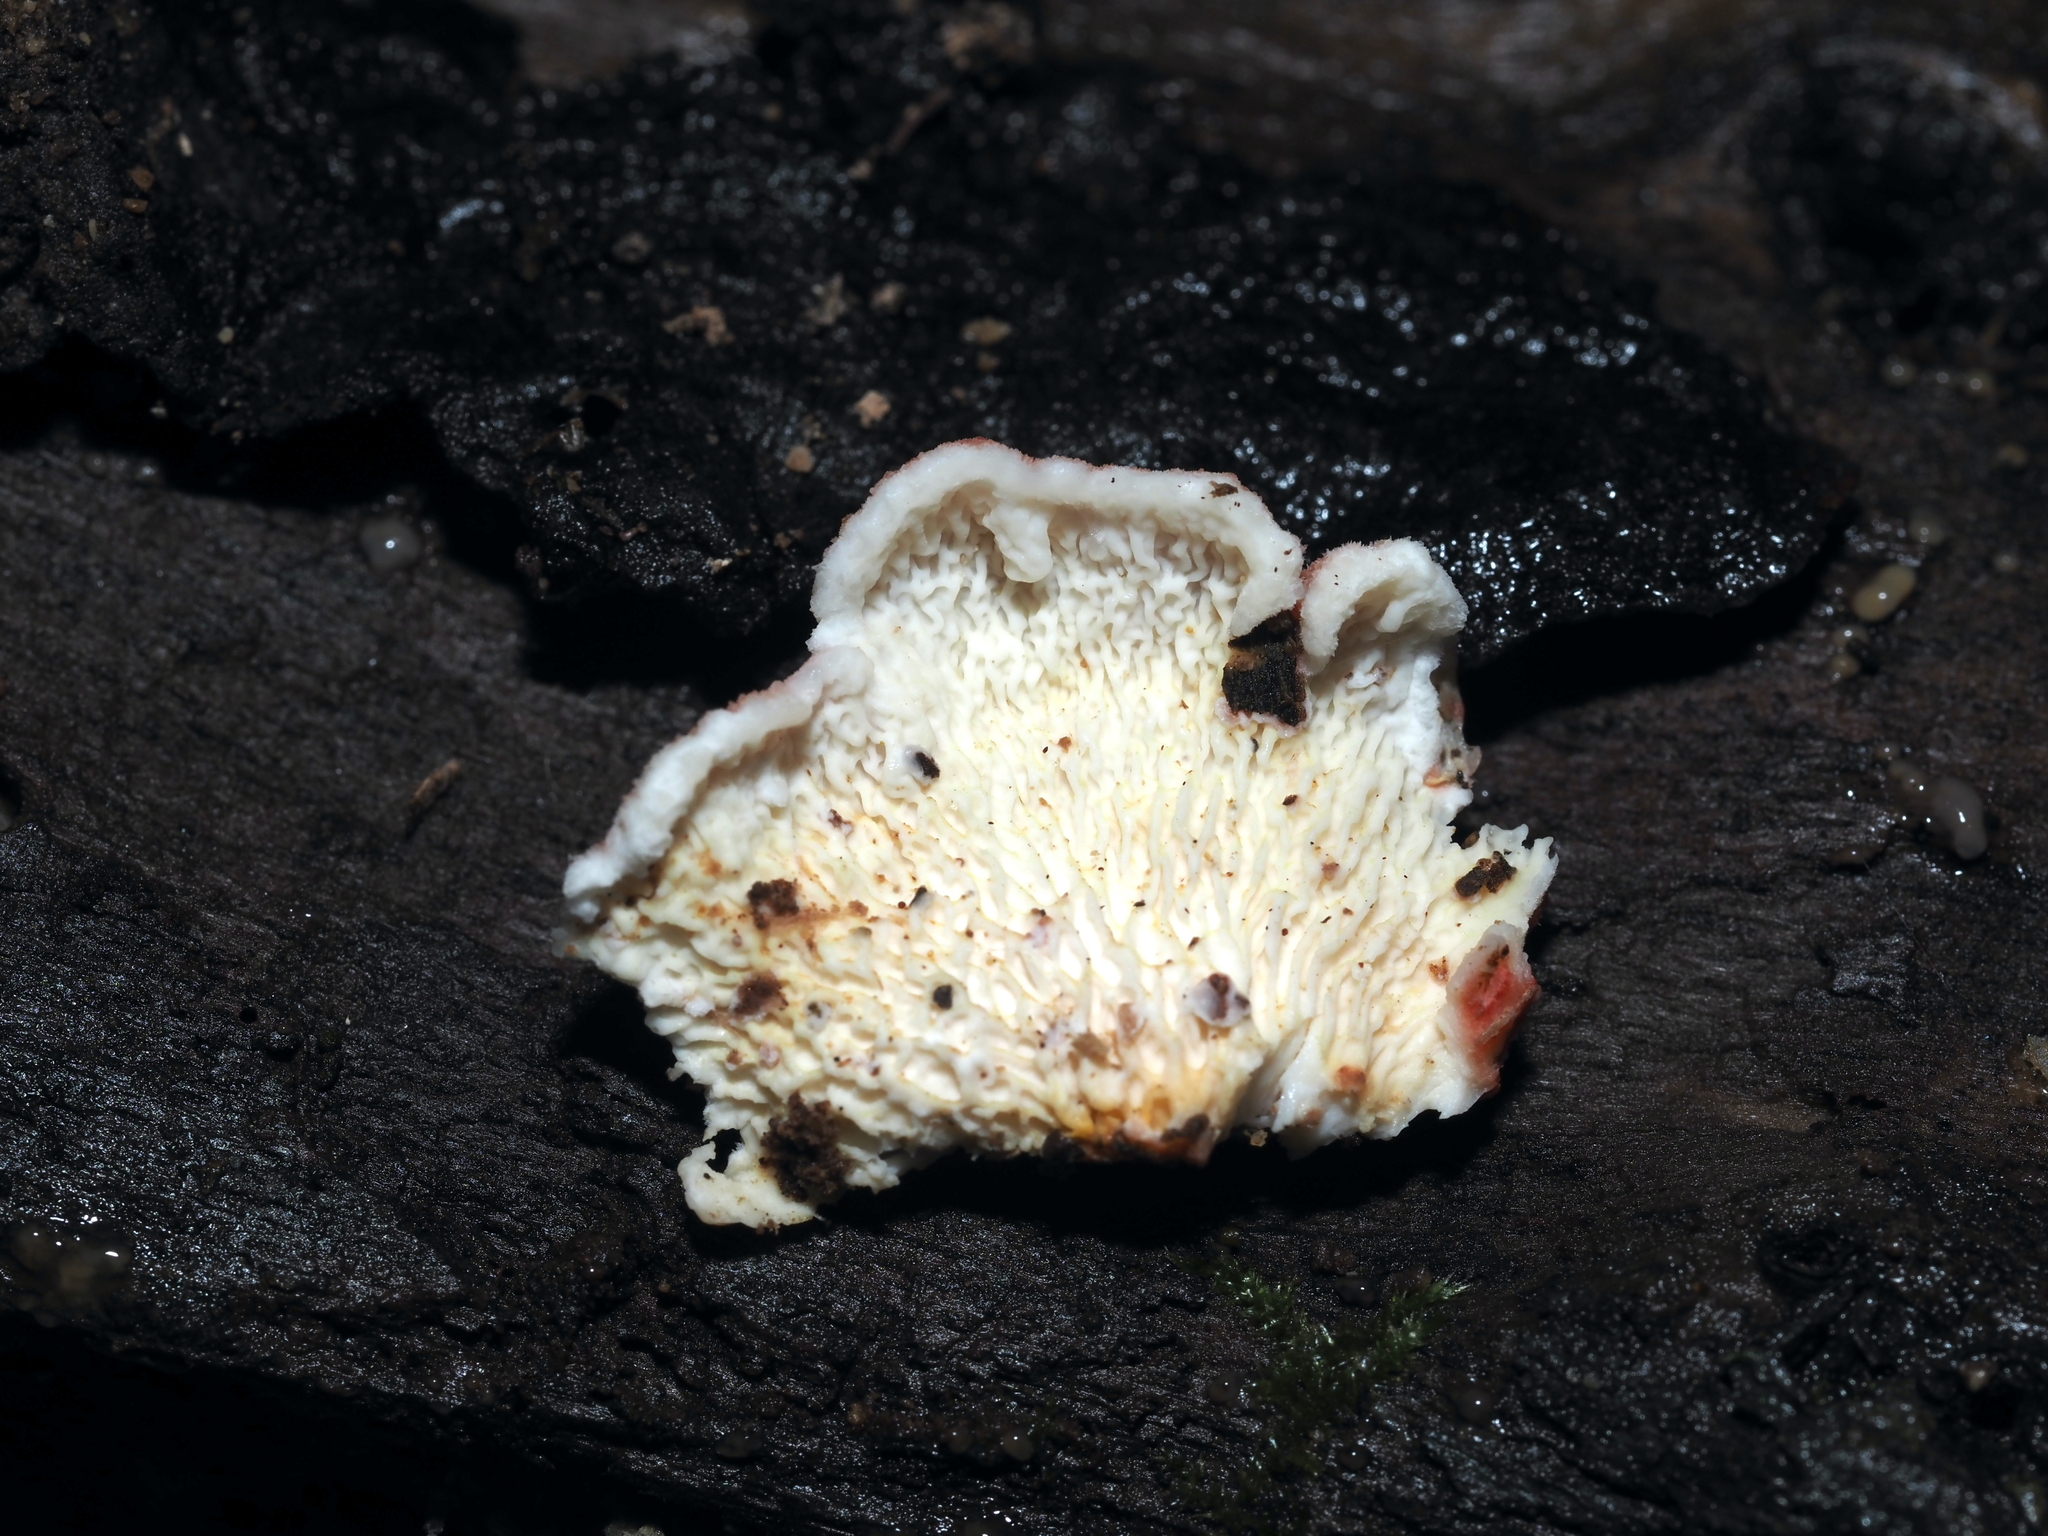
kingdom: Fungi
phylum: Basidiomycota
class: Agaricomycetes
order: Polyporales
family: Irpicaceae
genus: Byssomerulius
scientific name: Byssomerulius incarnatus
